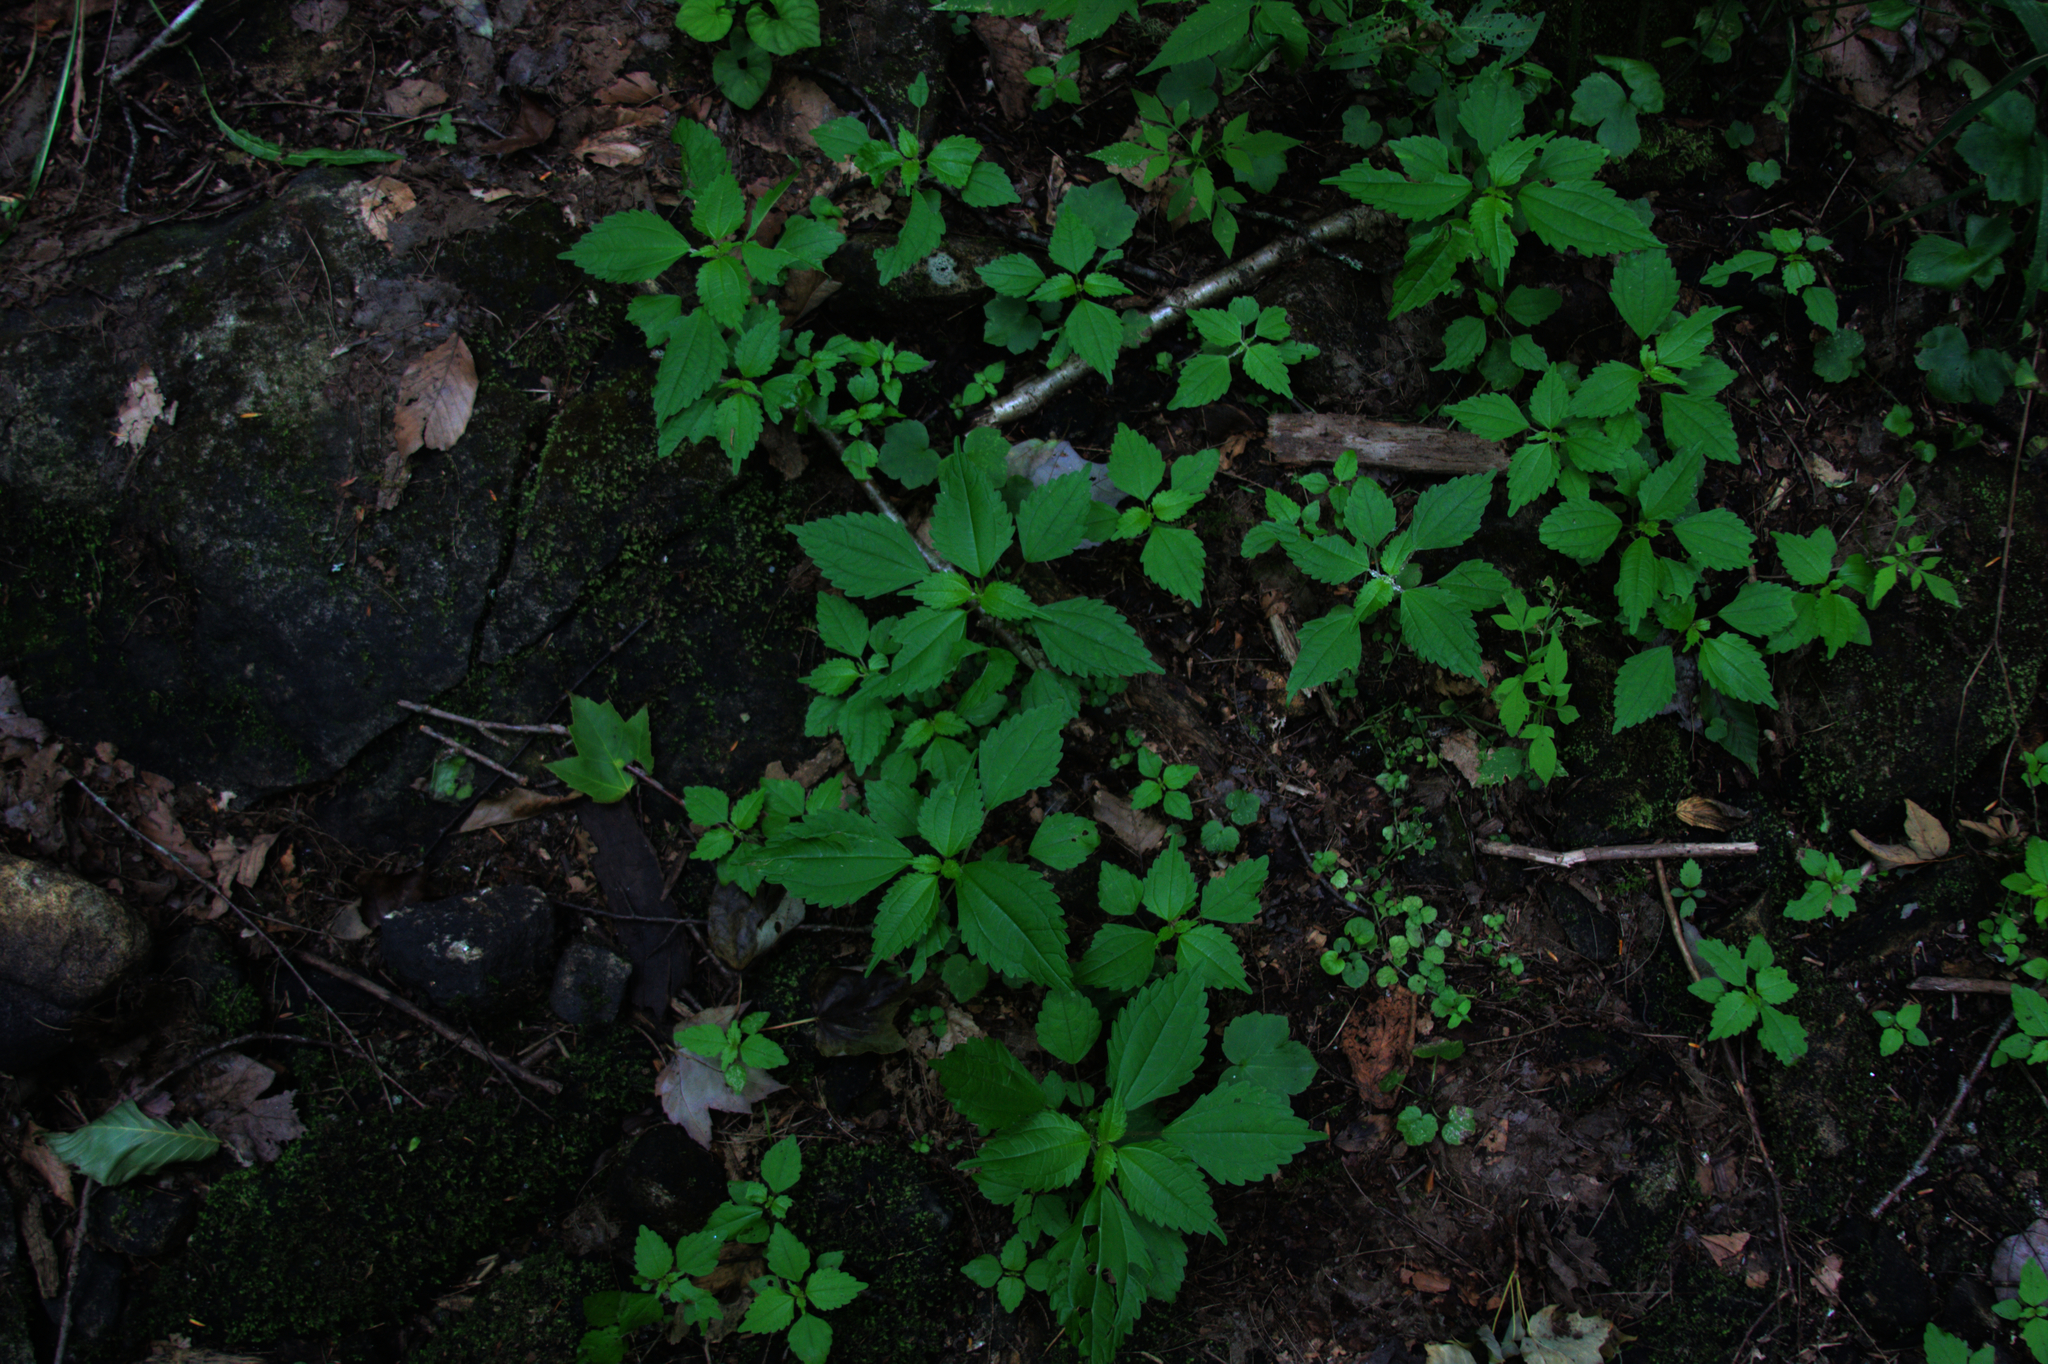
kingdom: Plantae
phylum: Tracheophyta
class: Magnoliopsida
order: Rosales
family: Urticaceae
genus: Pilea
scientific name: Pilea pumila
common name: Clearweed
